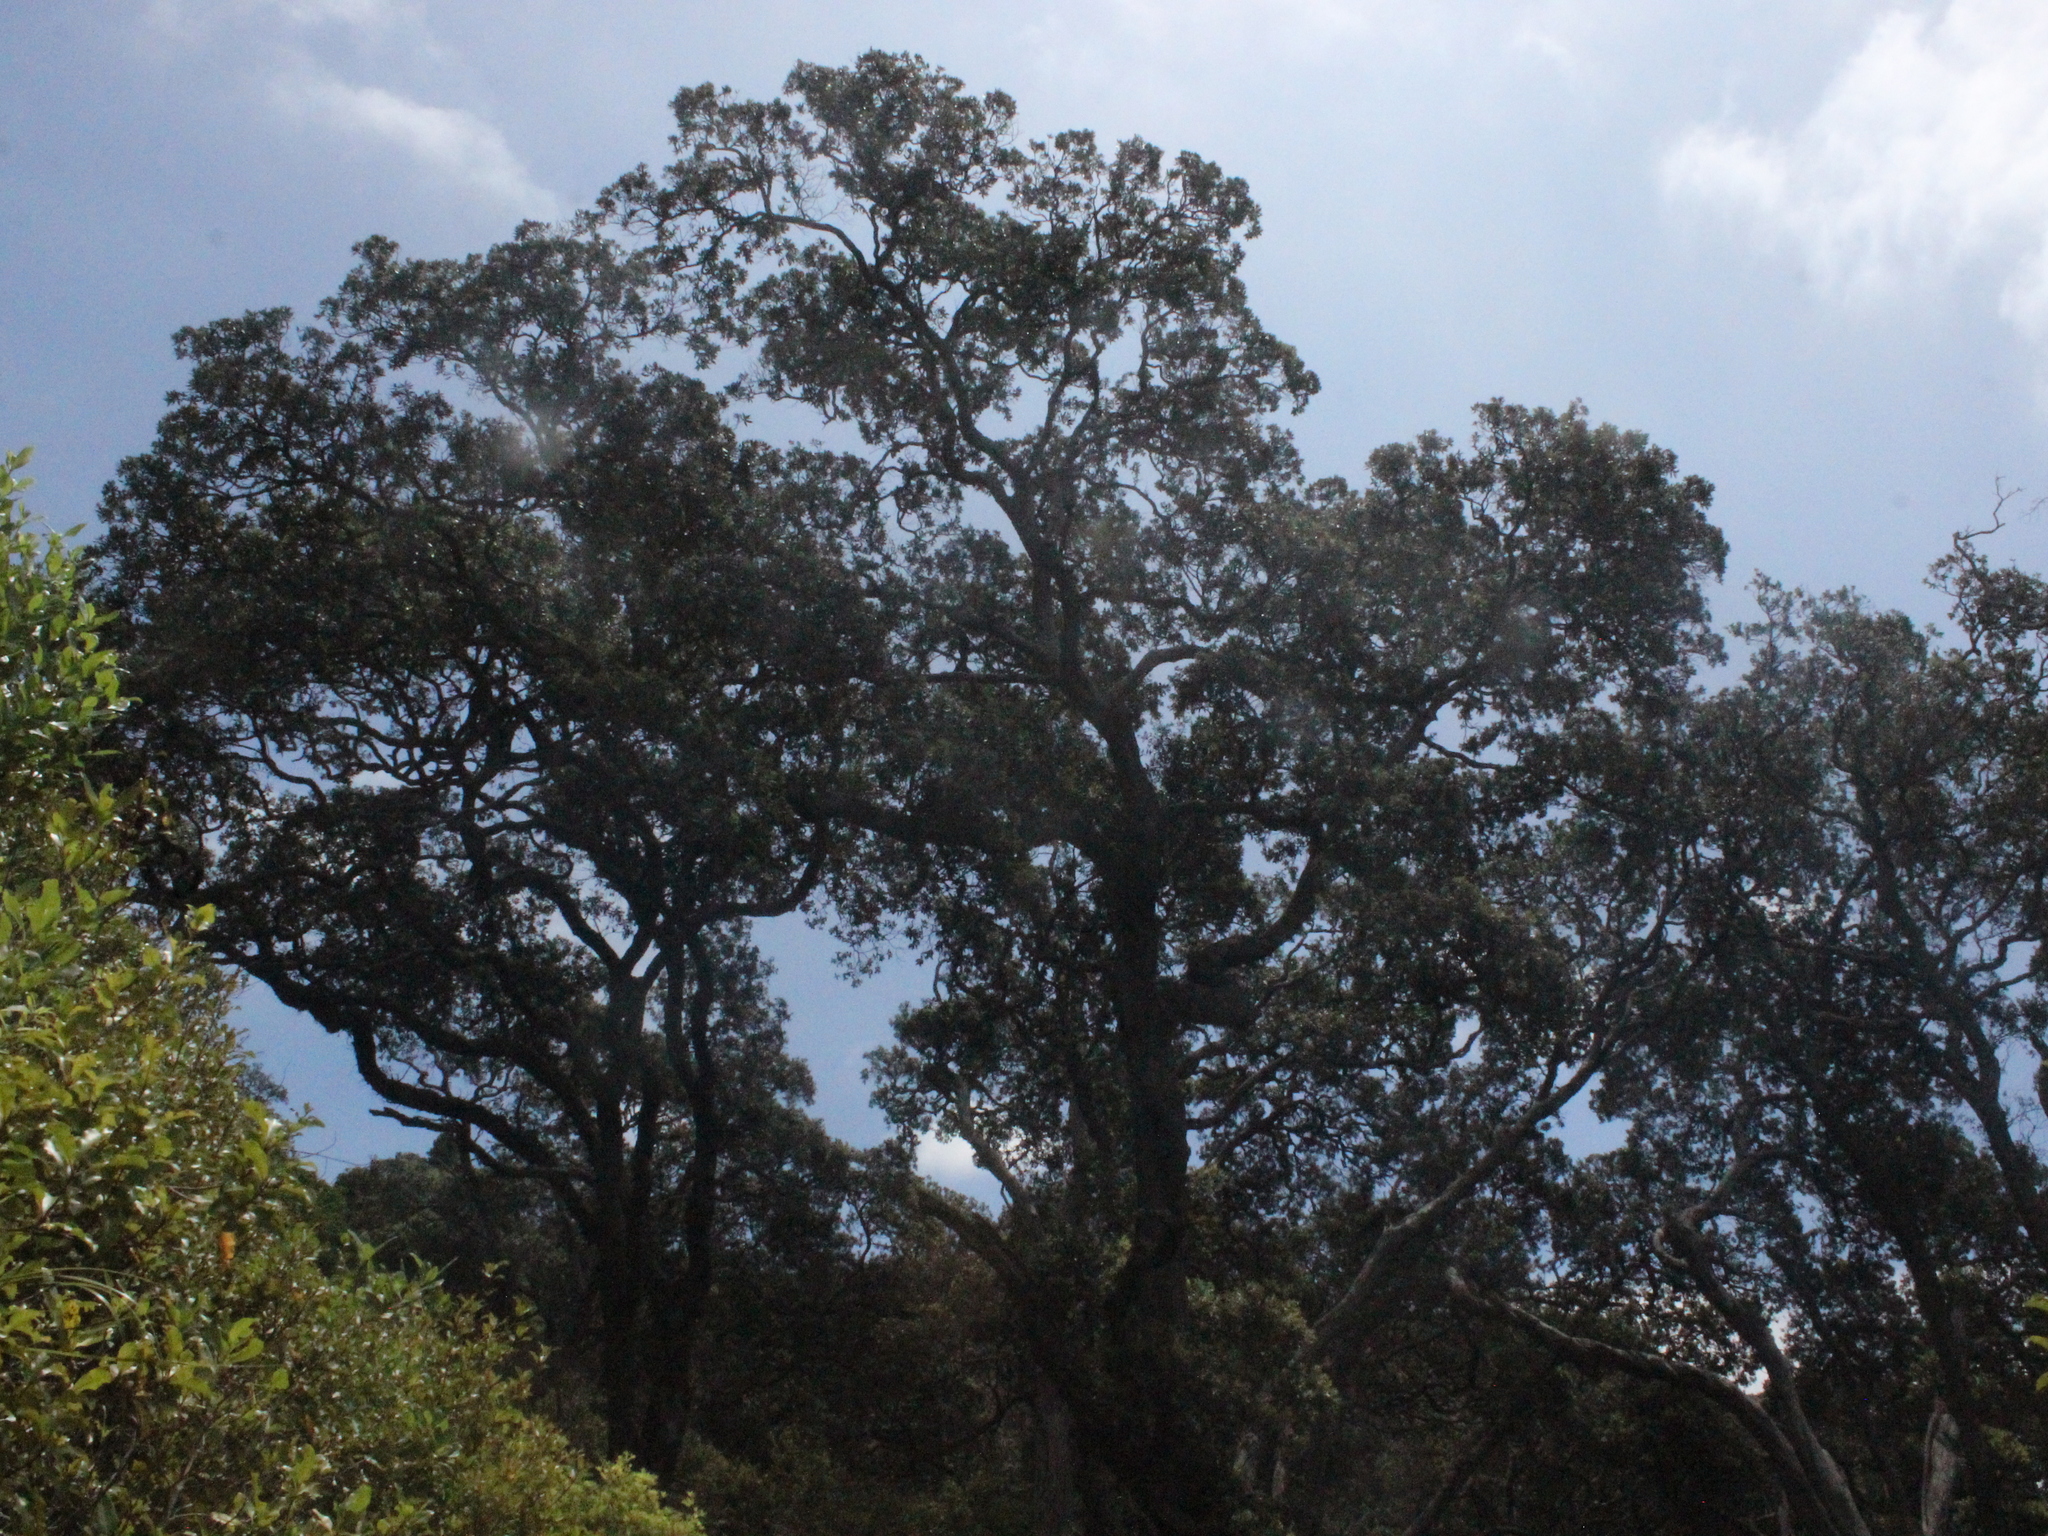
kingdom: Plantae
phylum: Tracheophyta
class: Magnoliopsida
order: Myrtales
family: Myrtaceae
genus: Metrosideros
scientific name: Metrosideros excelsa
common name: New zealand christmastree
